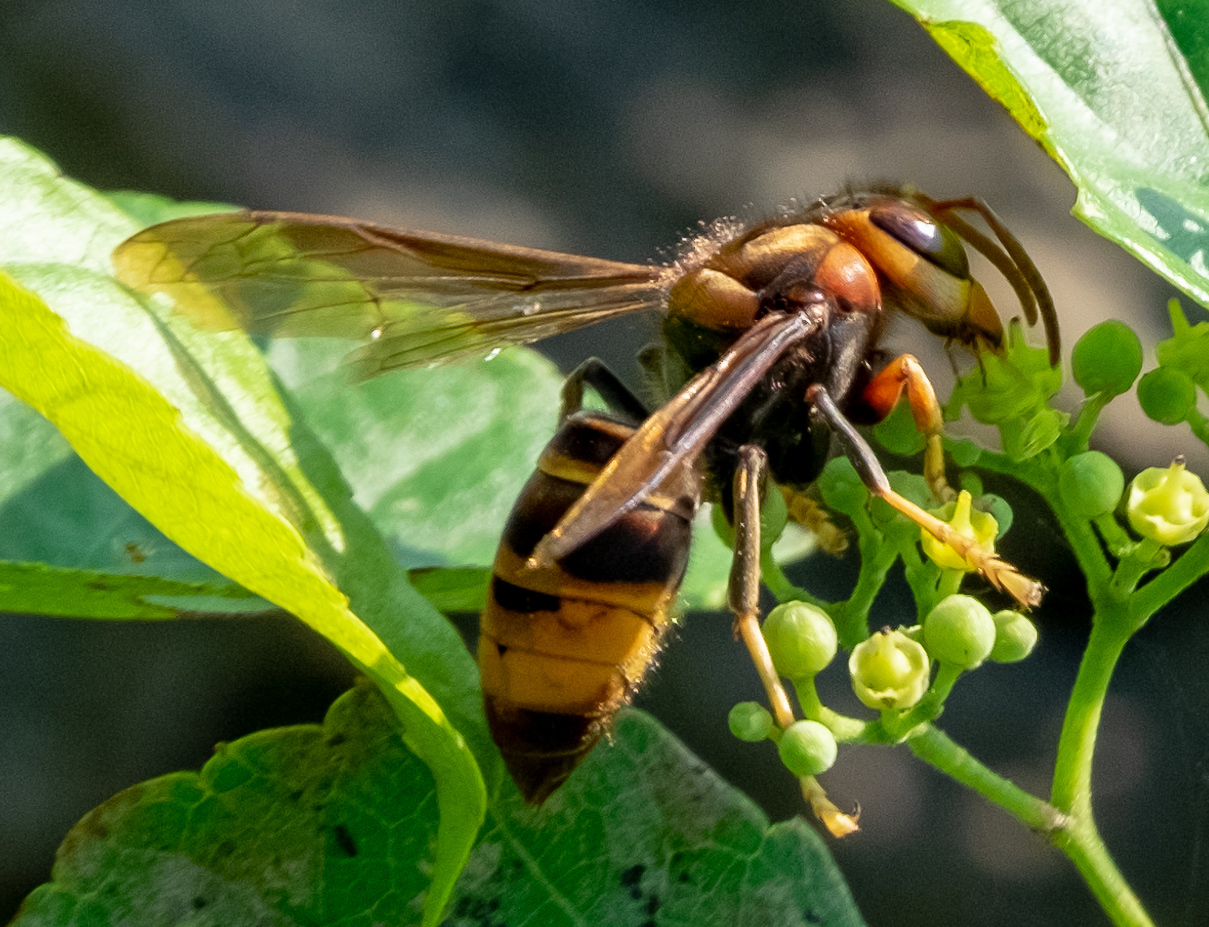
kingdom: Animalia
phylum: Arthropoda
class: Insecta
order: Hymenoptera
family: Vespidae
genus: Vespa
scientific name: Vespa velutina
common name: Asian hornet
